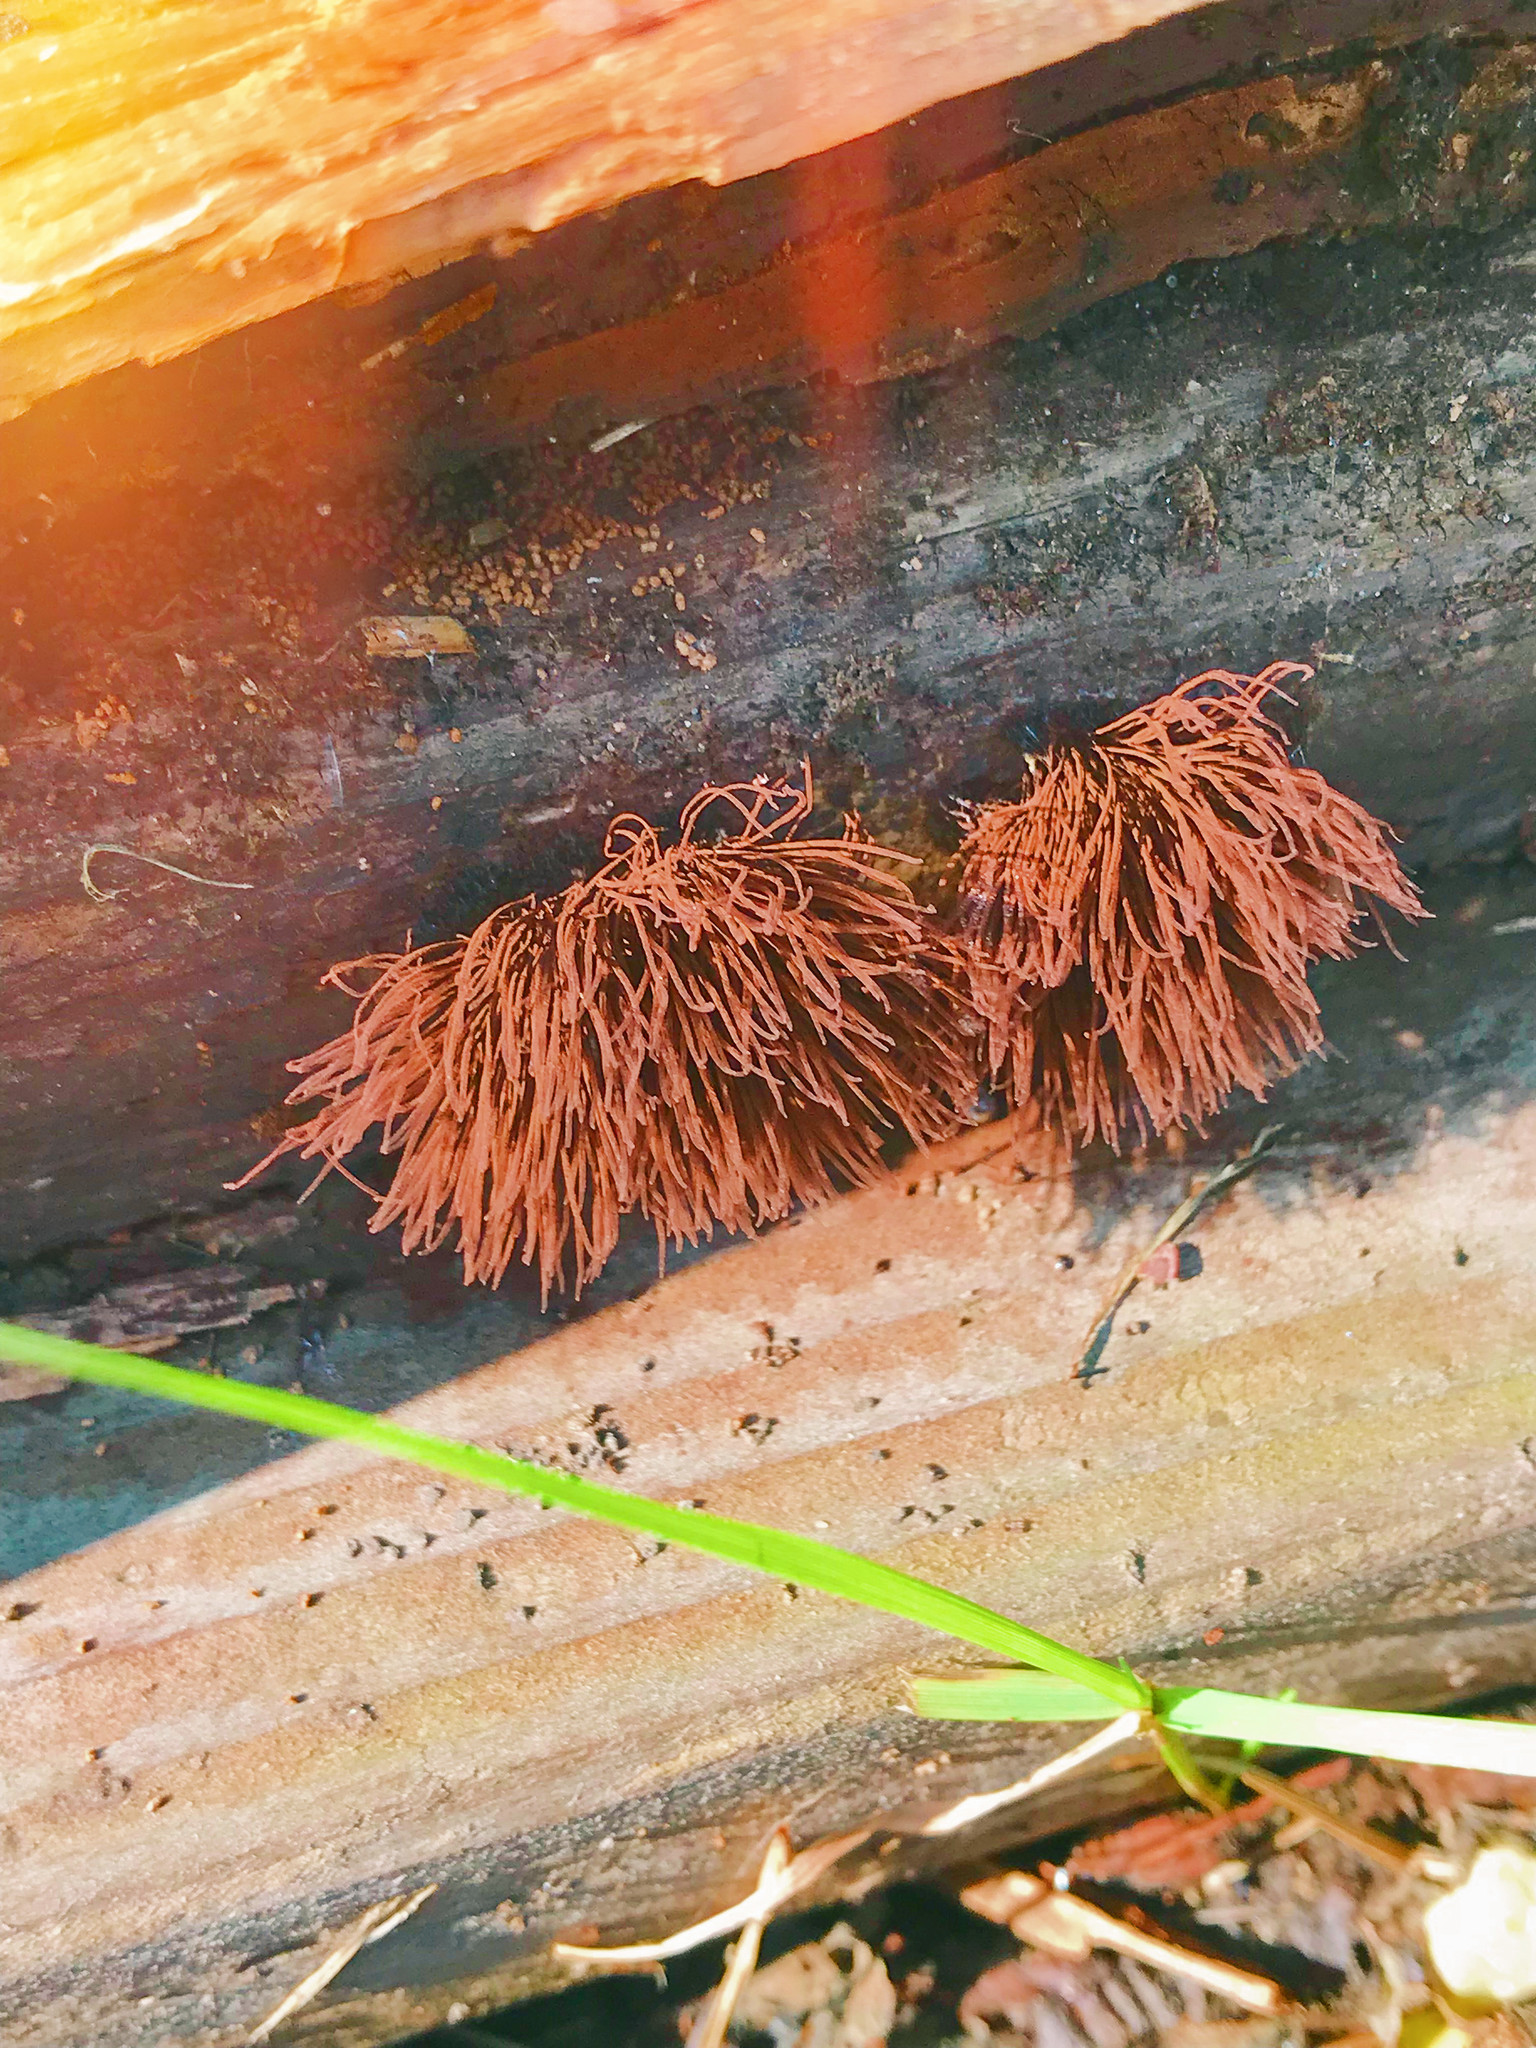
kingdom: Protozoa
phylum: Mycetozoa
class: Myxomycetes
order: Stemonitidales
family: Stemonitidaceae
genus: Stemonitis
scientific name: Stemonitis splendens
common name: Chocolate tube slime
